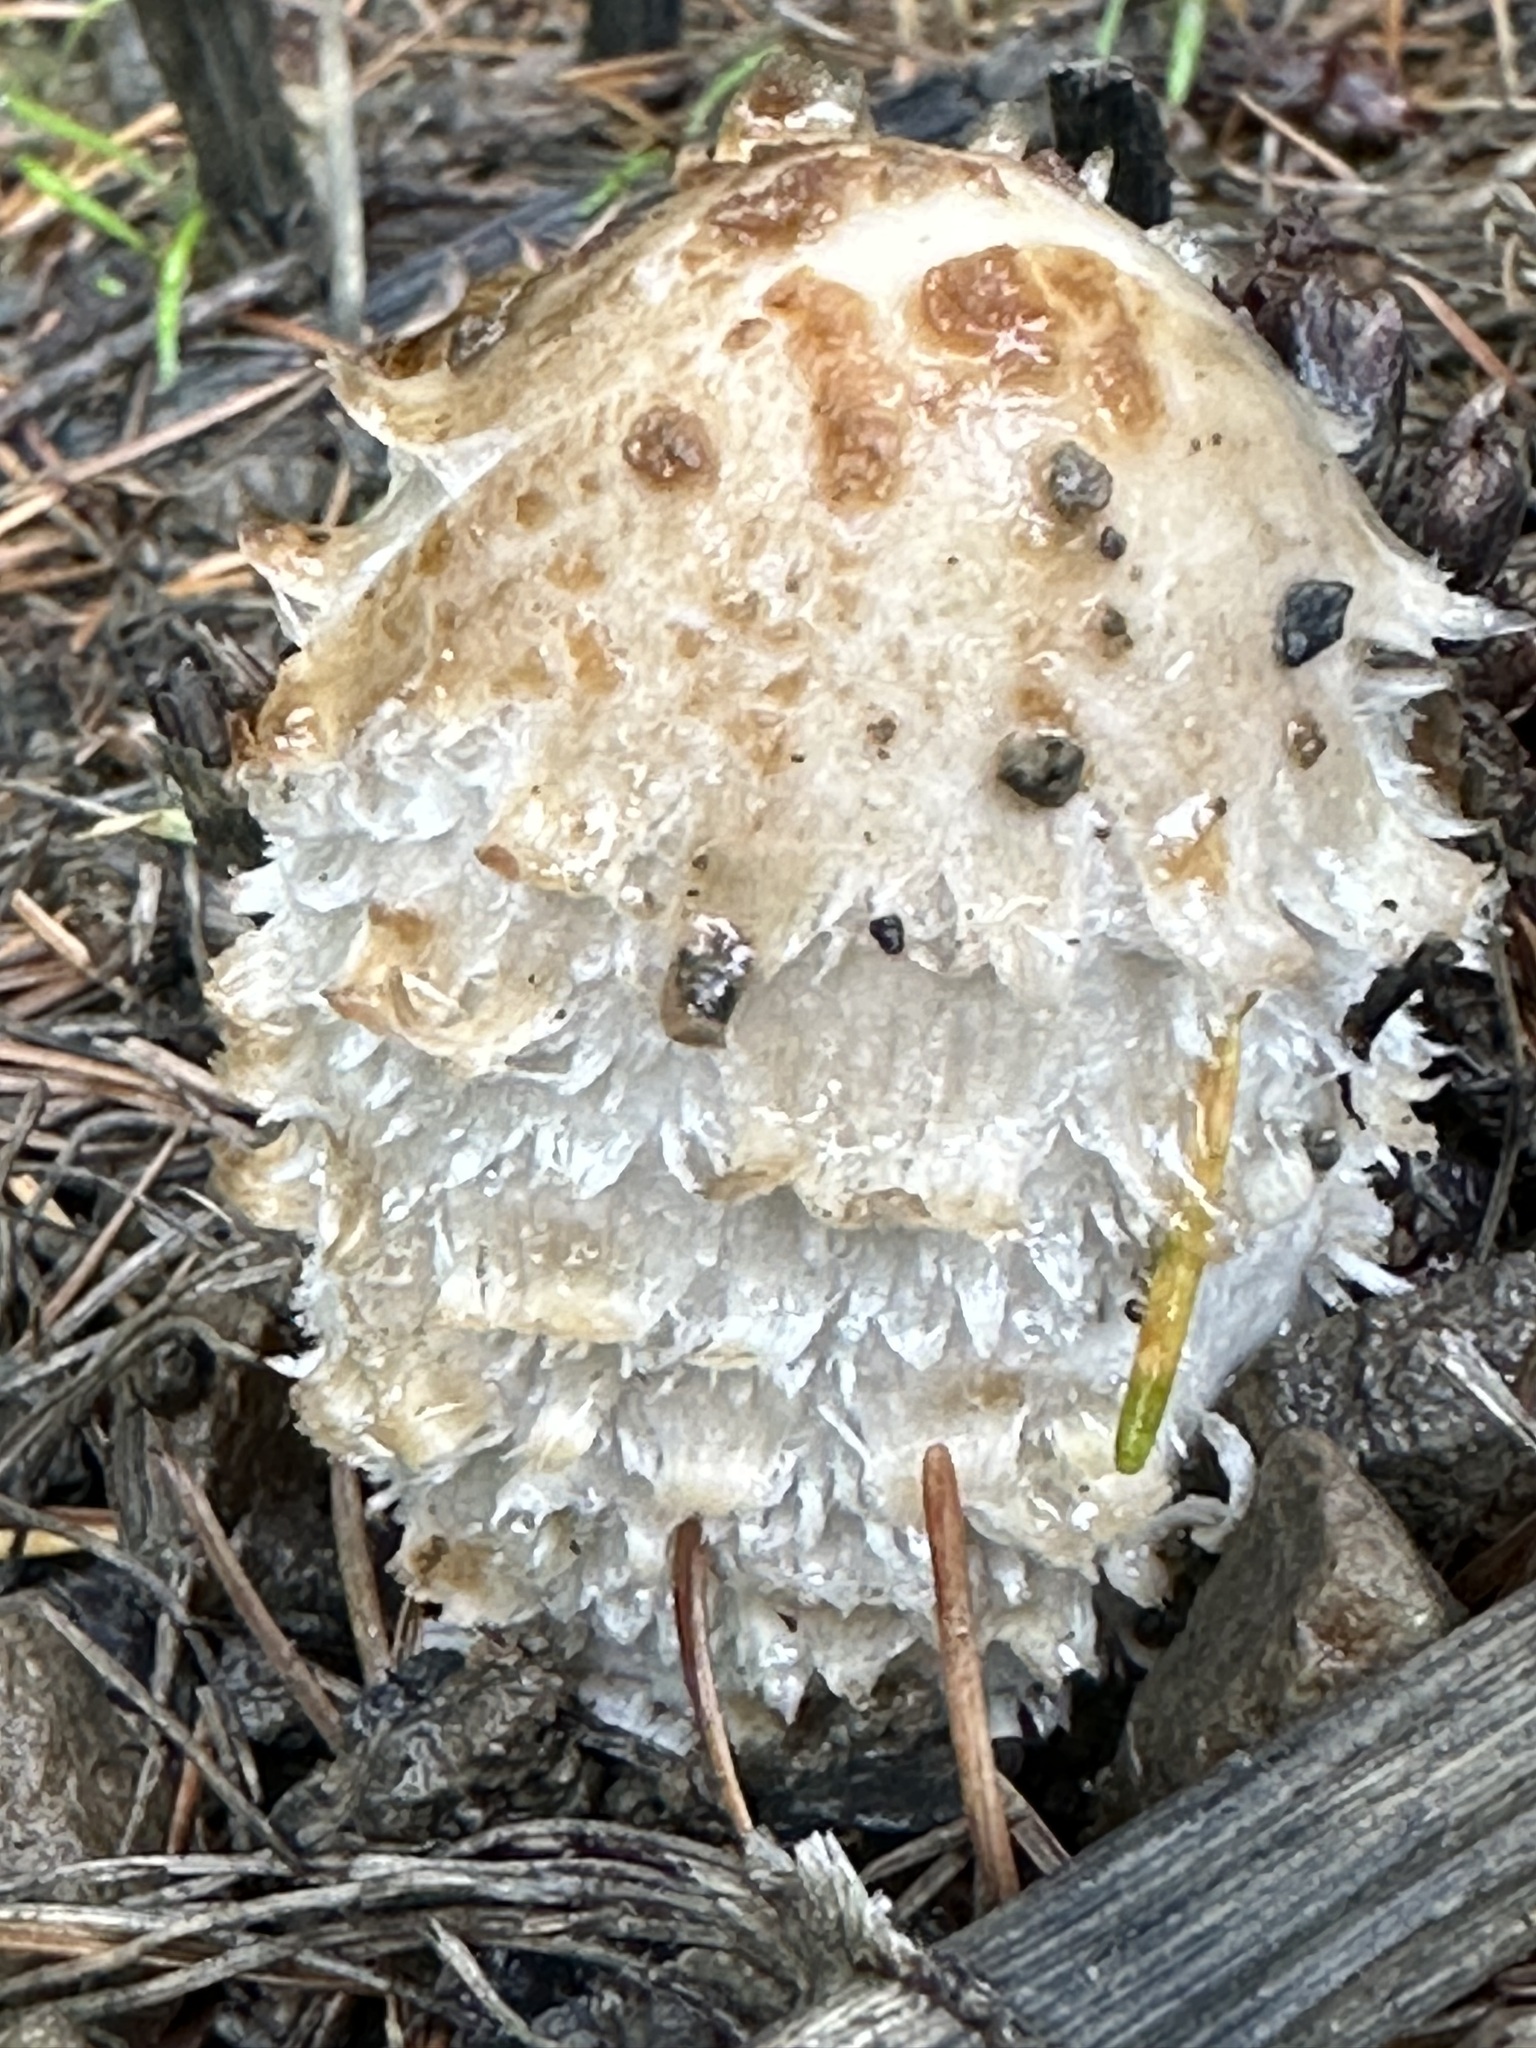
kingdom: Fungi
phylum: Basidiomycota
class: Agaricomycetes
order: Agaricales
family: Agaricaceae
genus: Coprinus
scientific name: Coprinus comatus
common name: Lawyer's wig
